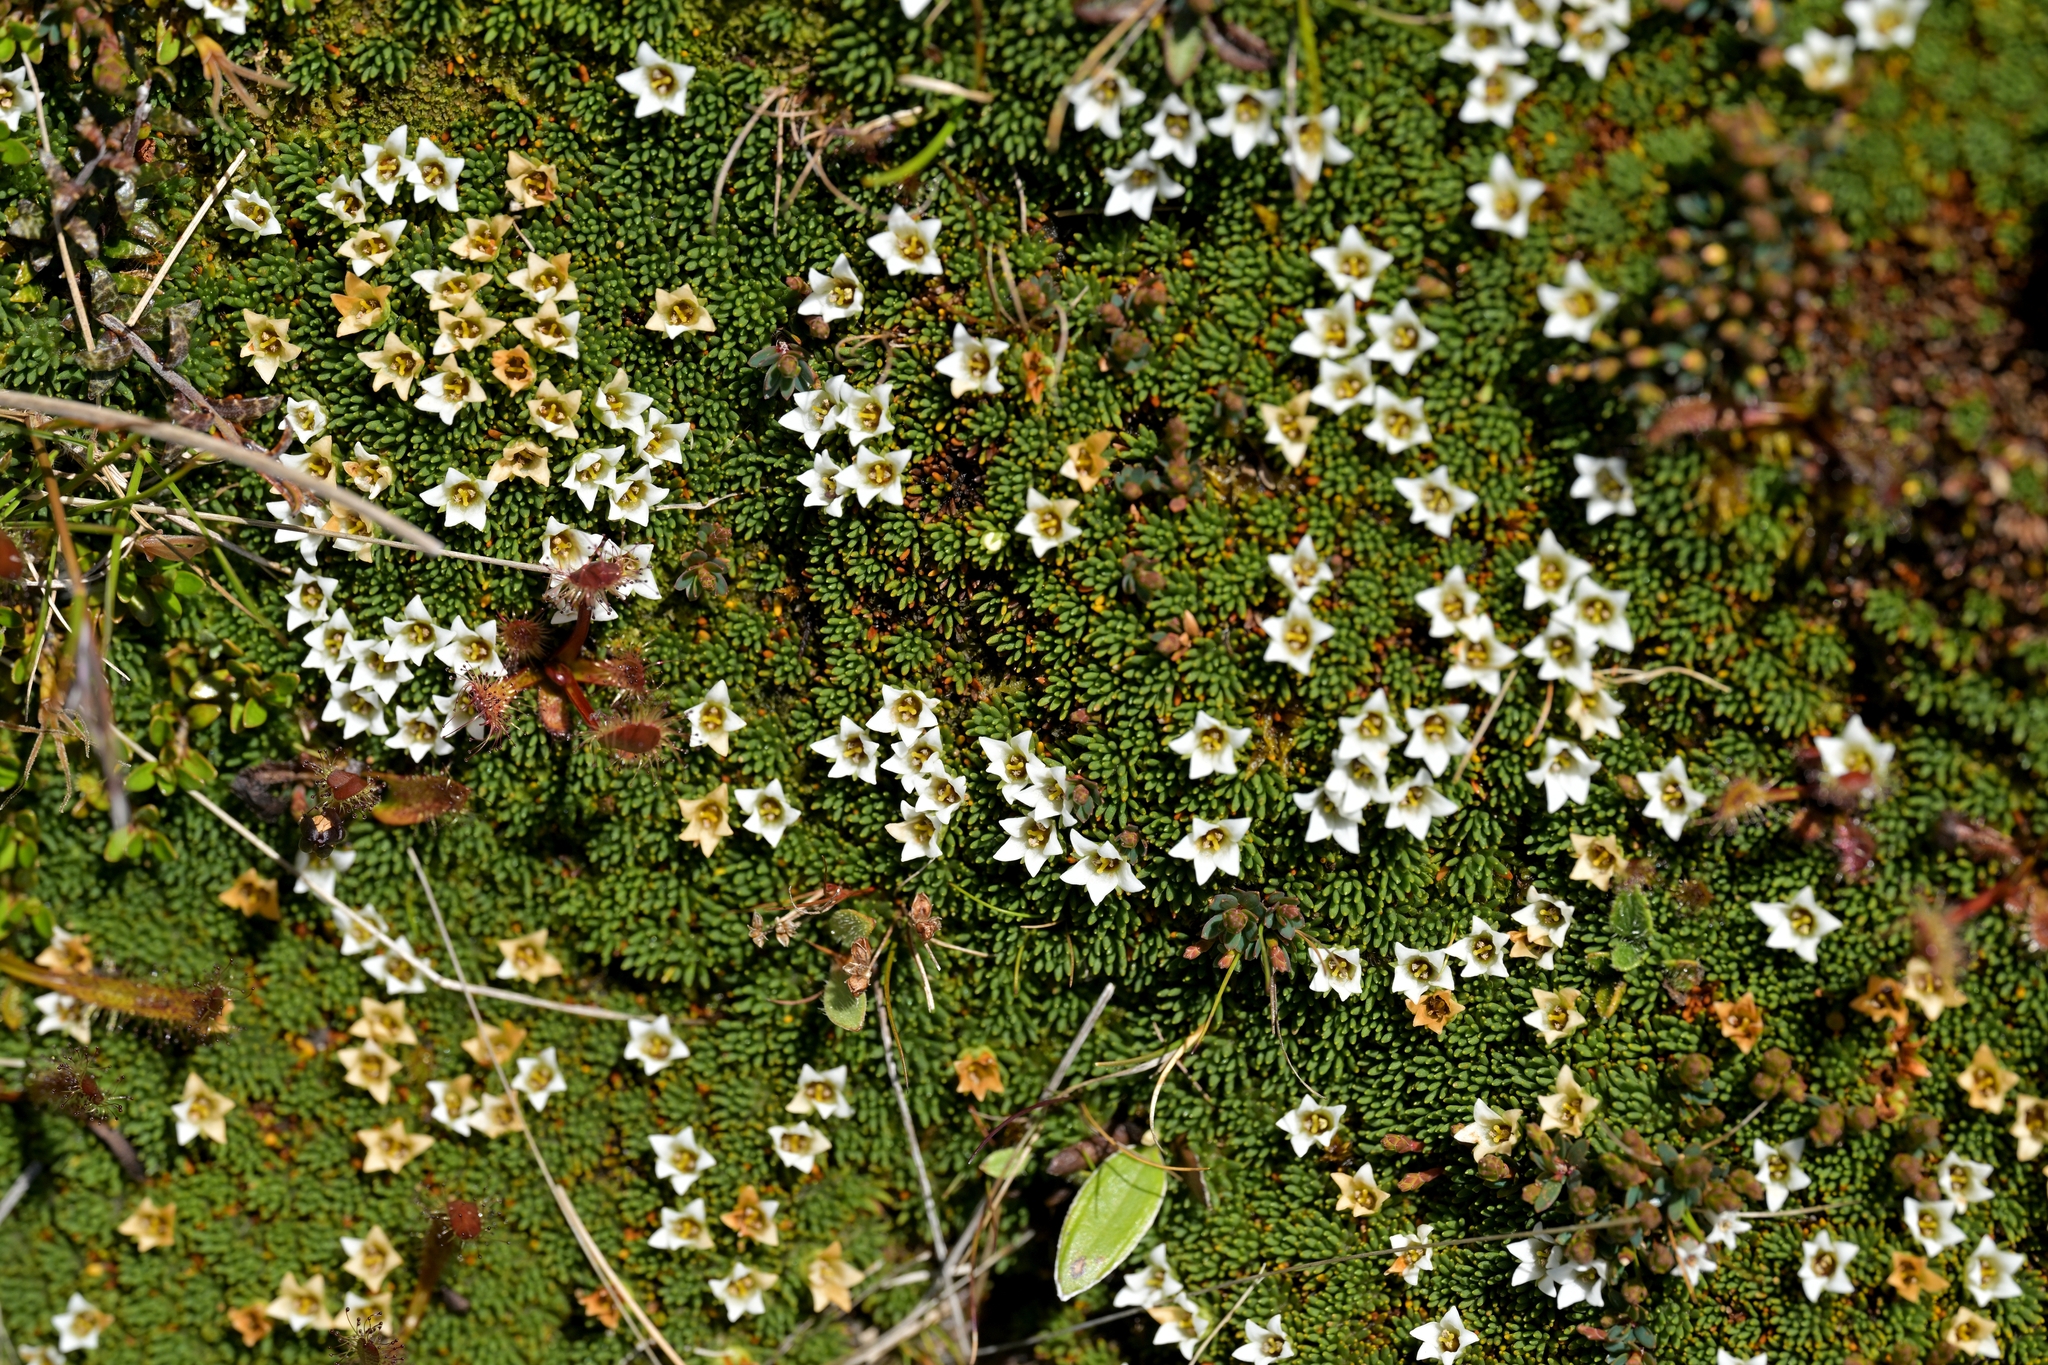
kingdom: Plantae
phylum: Tracheophyta
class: Magnoliopsida
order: Asterales
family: Stylidiaceae
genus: Donatia
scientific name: Donatia novae-zelandiae
